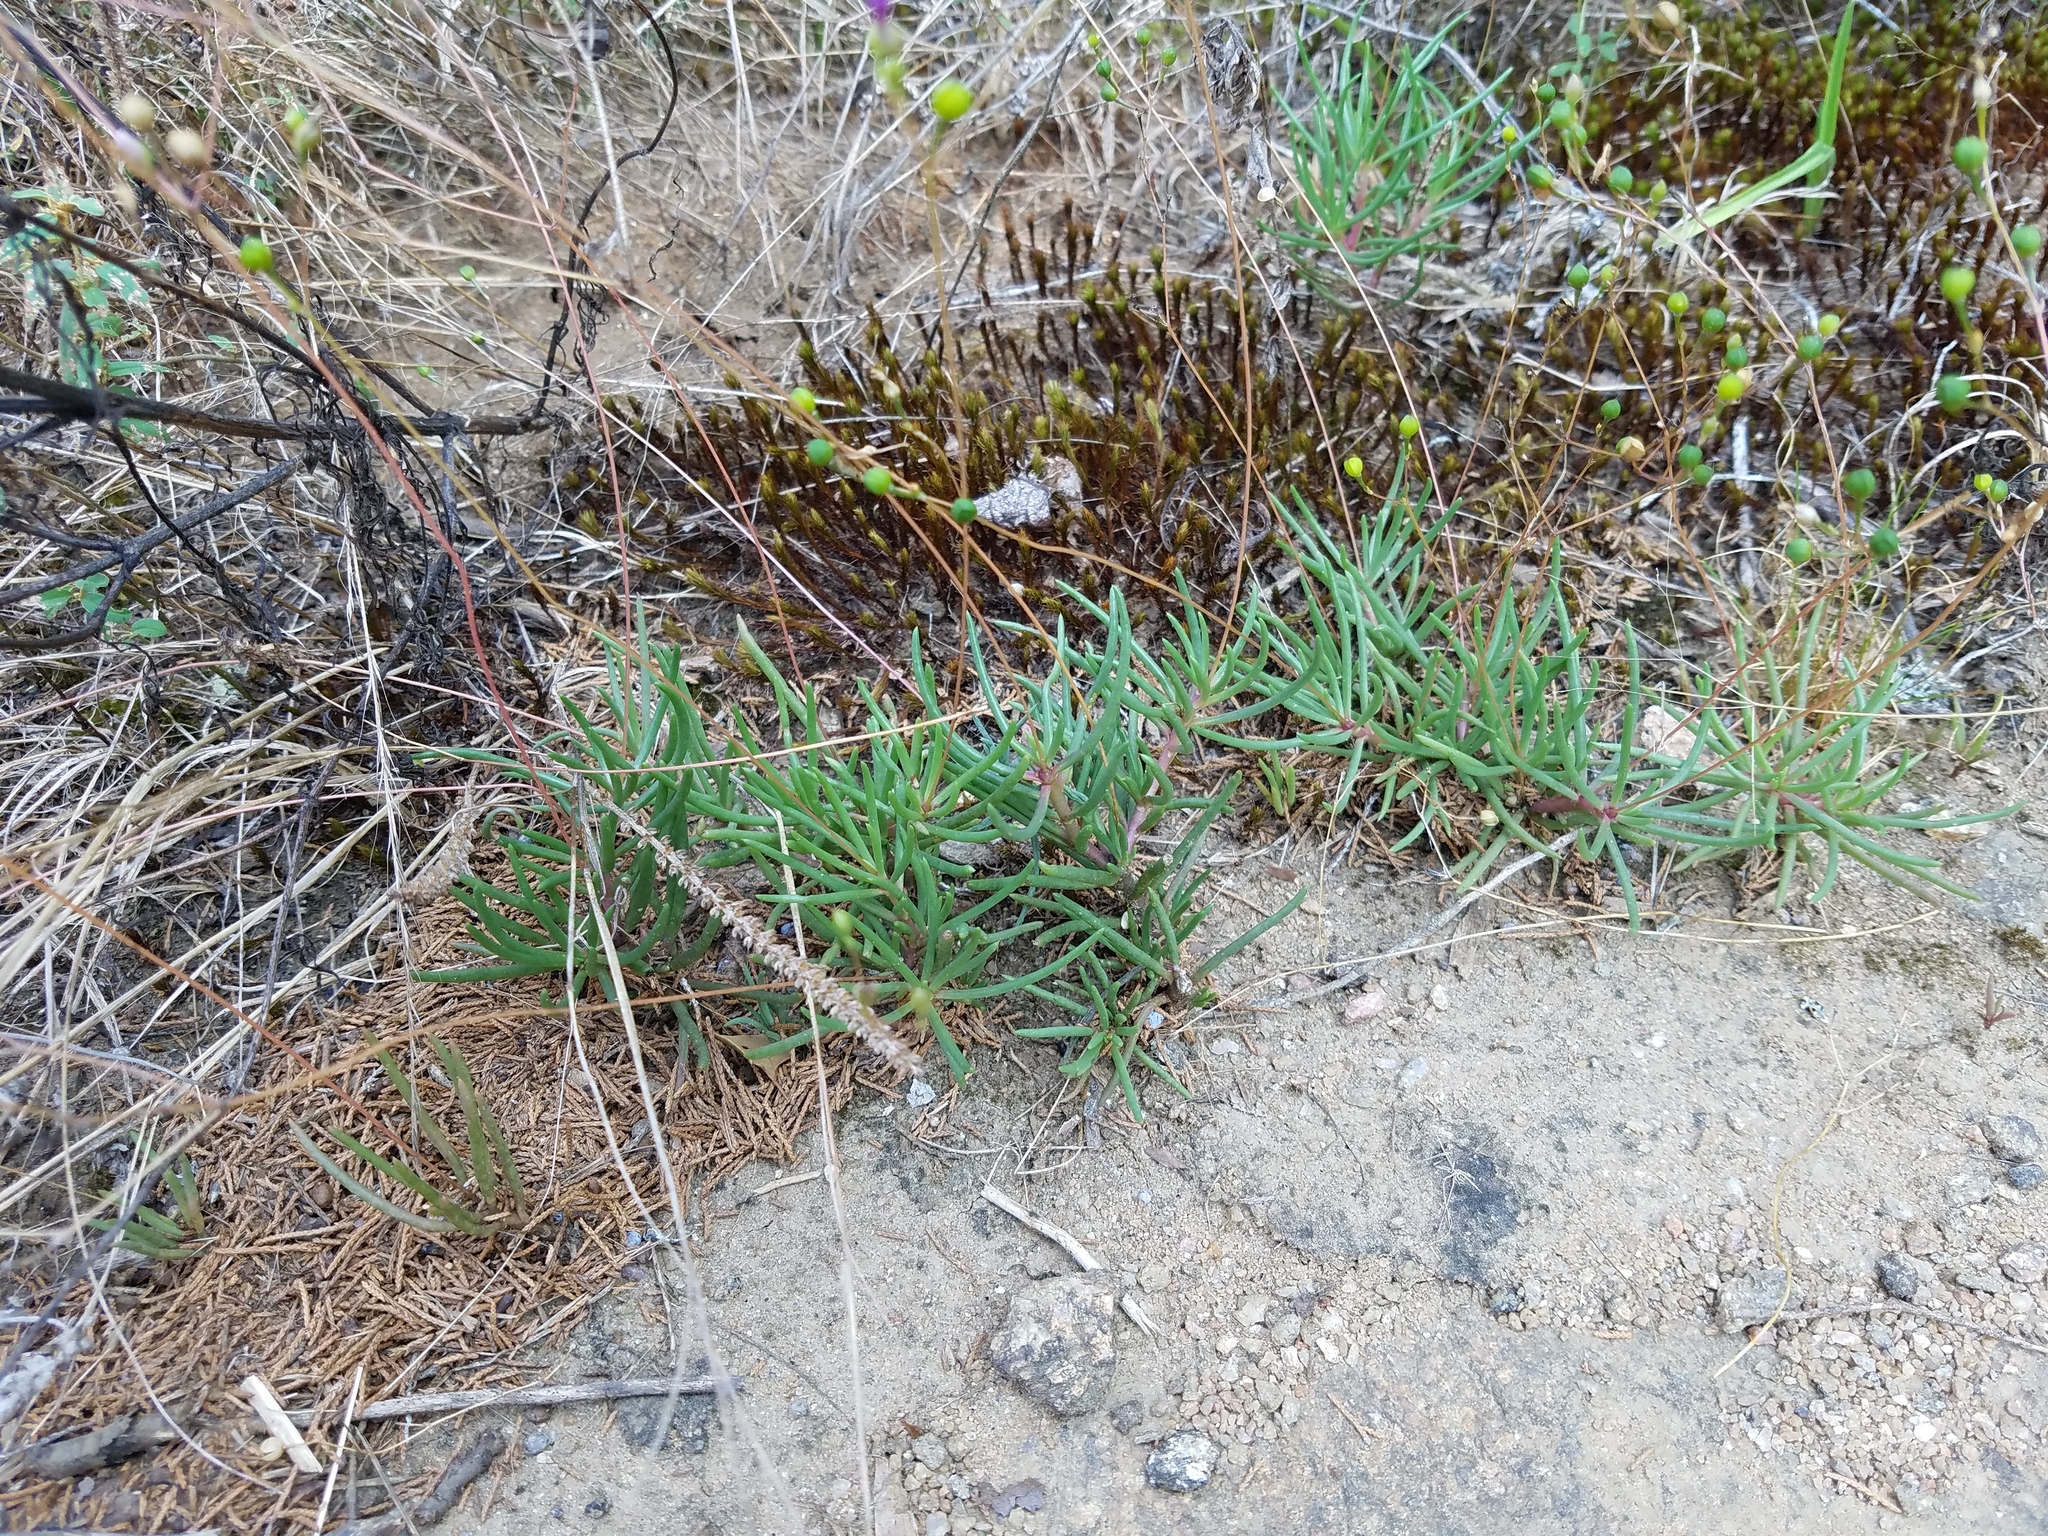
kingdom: Plantae
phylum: Tracheophyta
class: Magnoliopsida
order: Caryophyllales
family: Montiaceae
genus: Phemeranthus
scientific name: Phemeranthus teretifolius
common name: Quill fameflower
